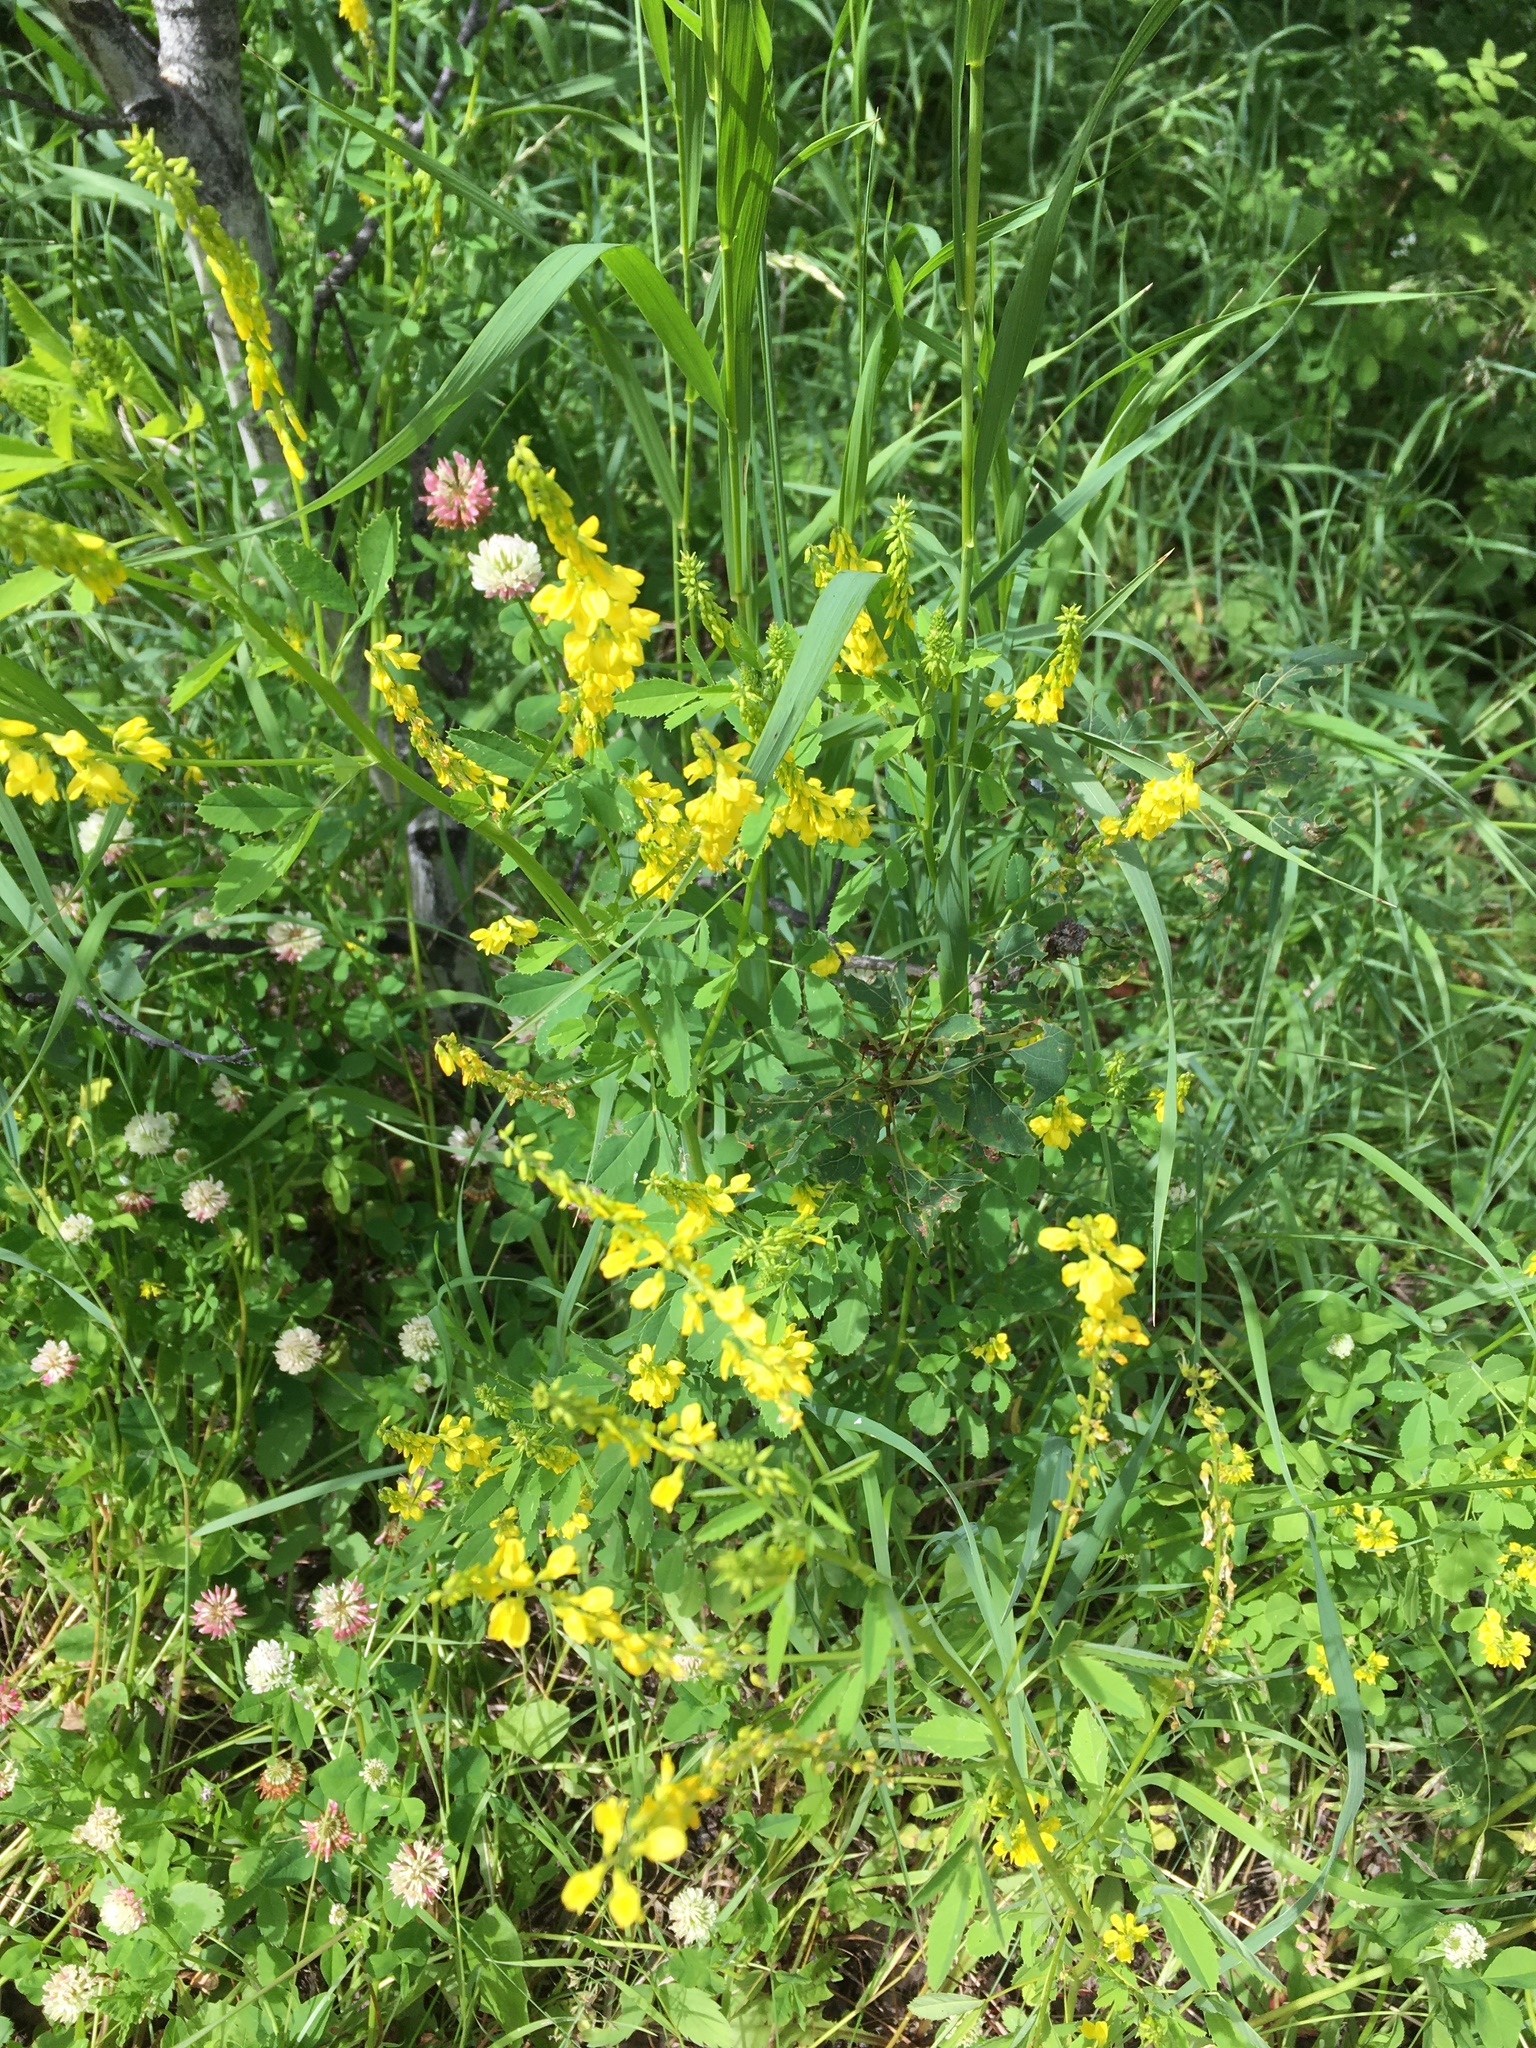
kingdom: Plantae
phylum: Tracheophyta
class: Magnoliopsida
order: Fabales
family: Fabaceae
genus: Melilotus
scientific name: Melilotus officinalis
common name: Sweetclover
